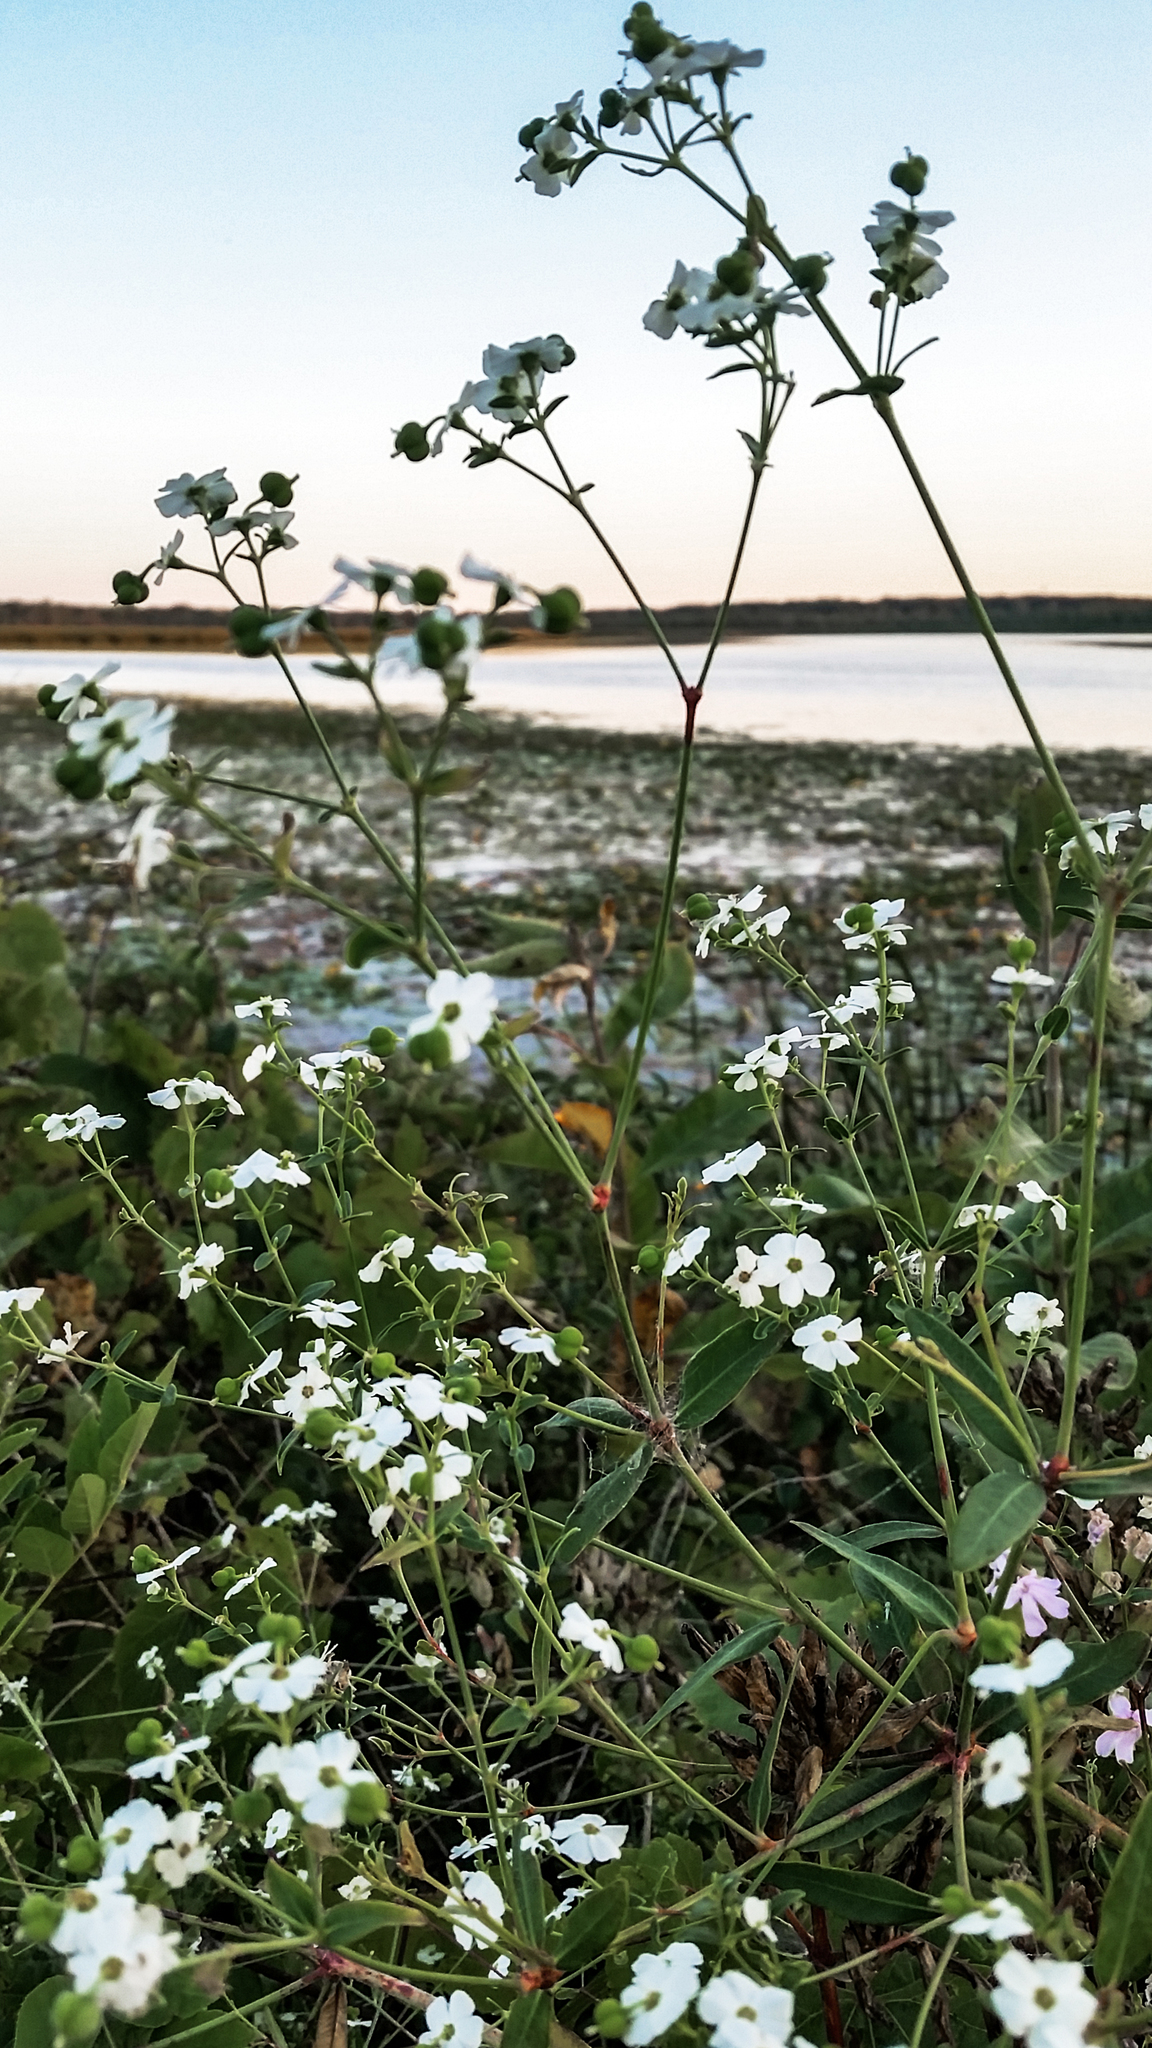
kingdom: Plantae
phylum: Tracheophyta
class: Magnoliopsida
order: Malpighiales
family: Euphorbiaceae
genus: Euphorbia
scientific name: Euphorbia corollata
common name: Flowering spurge
